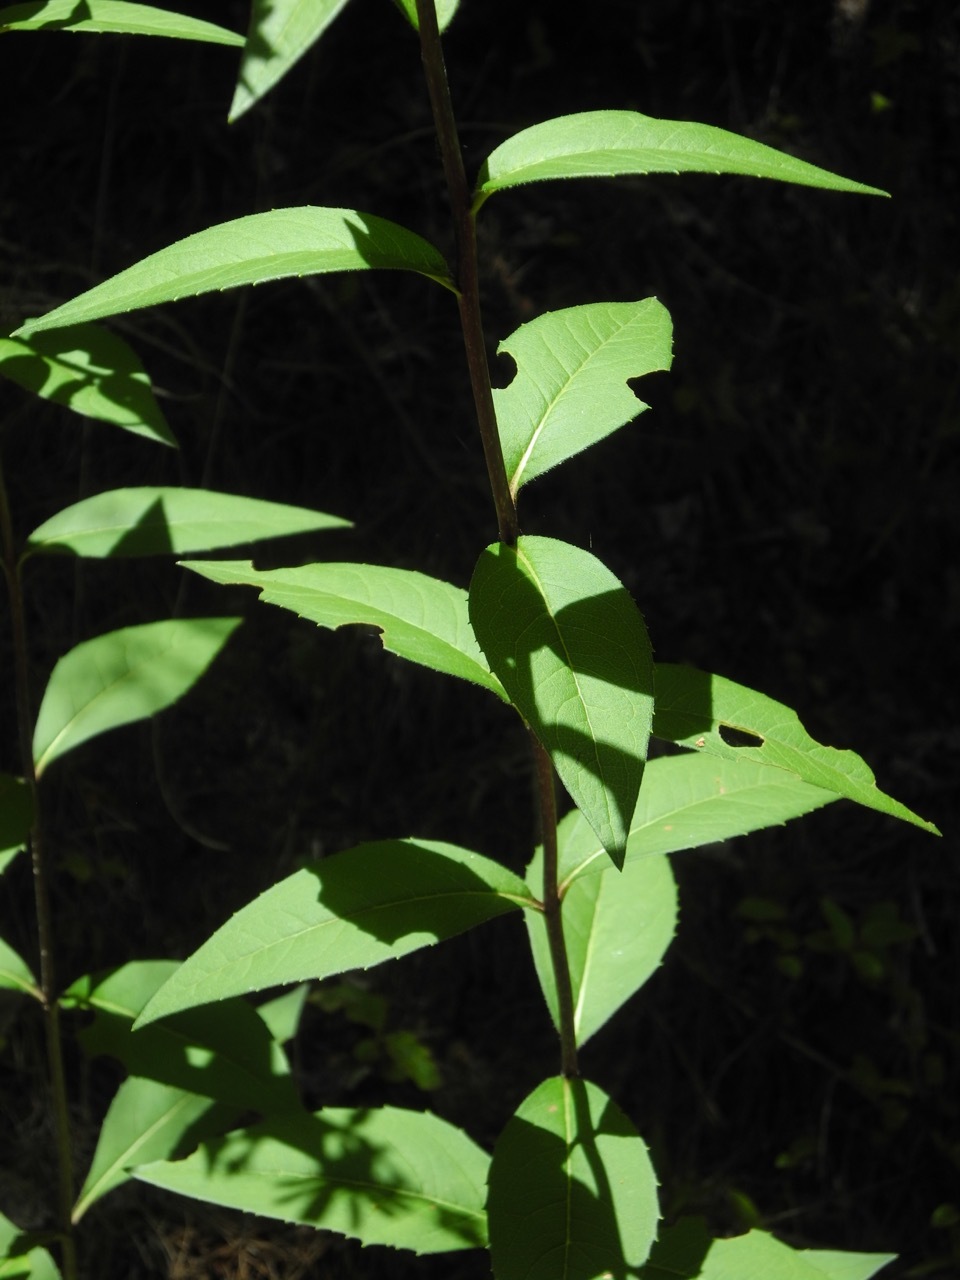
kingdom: Plantae
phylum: Tracheophyta
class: Magnoliopsida
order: Asterales
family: Asteraceae
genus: Silphium
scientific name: Silphium asteriscus
